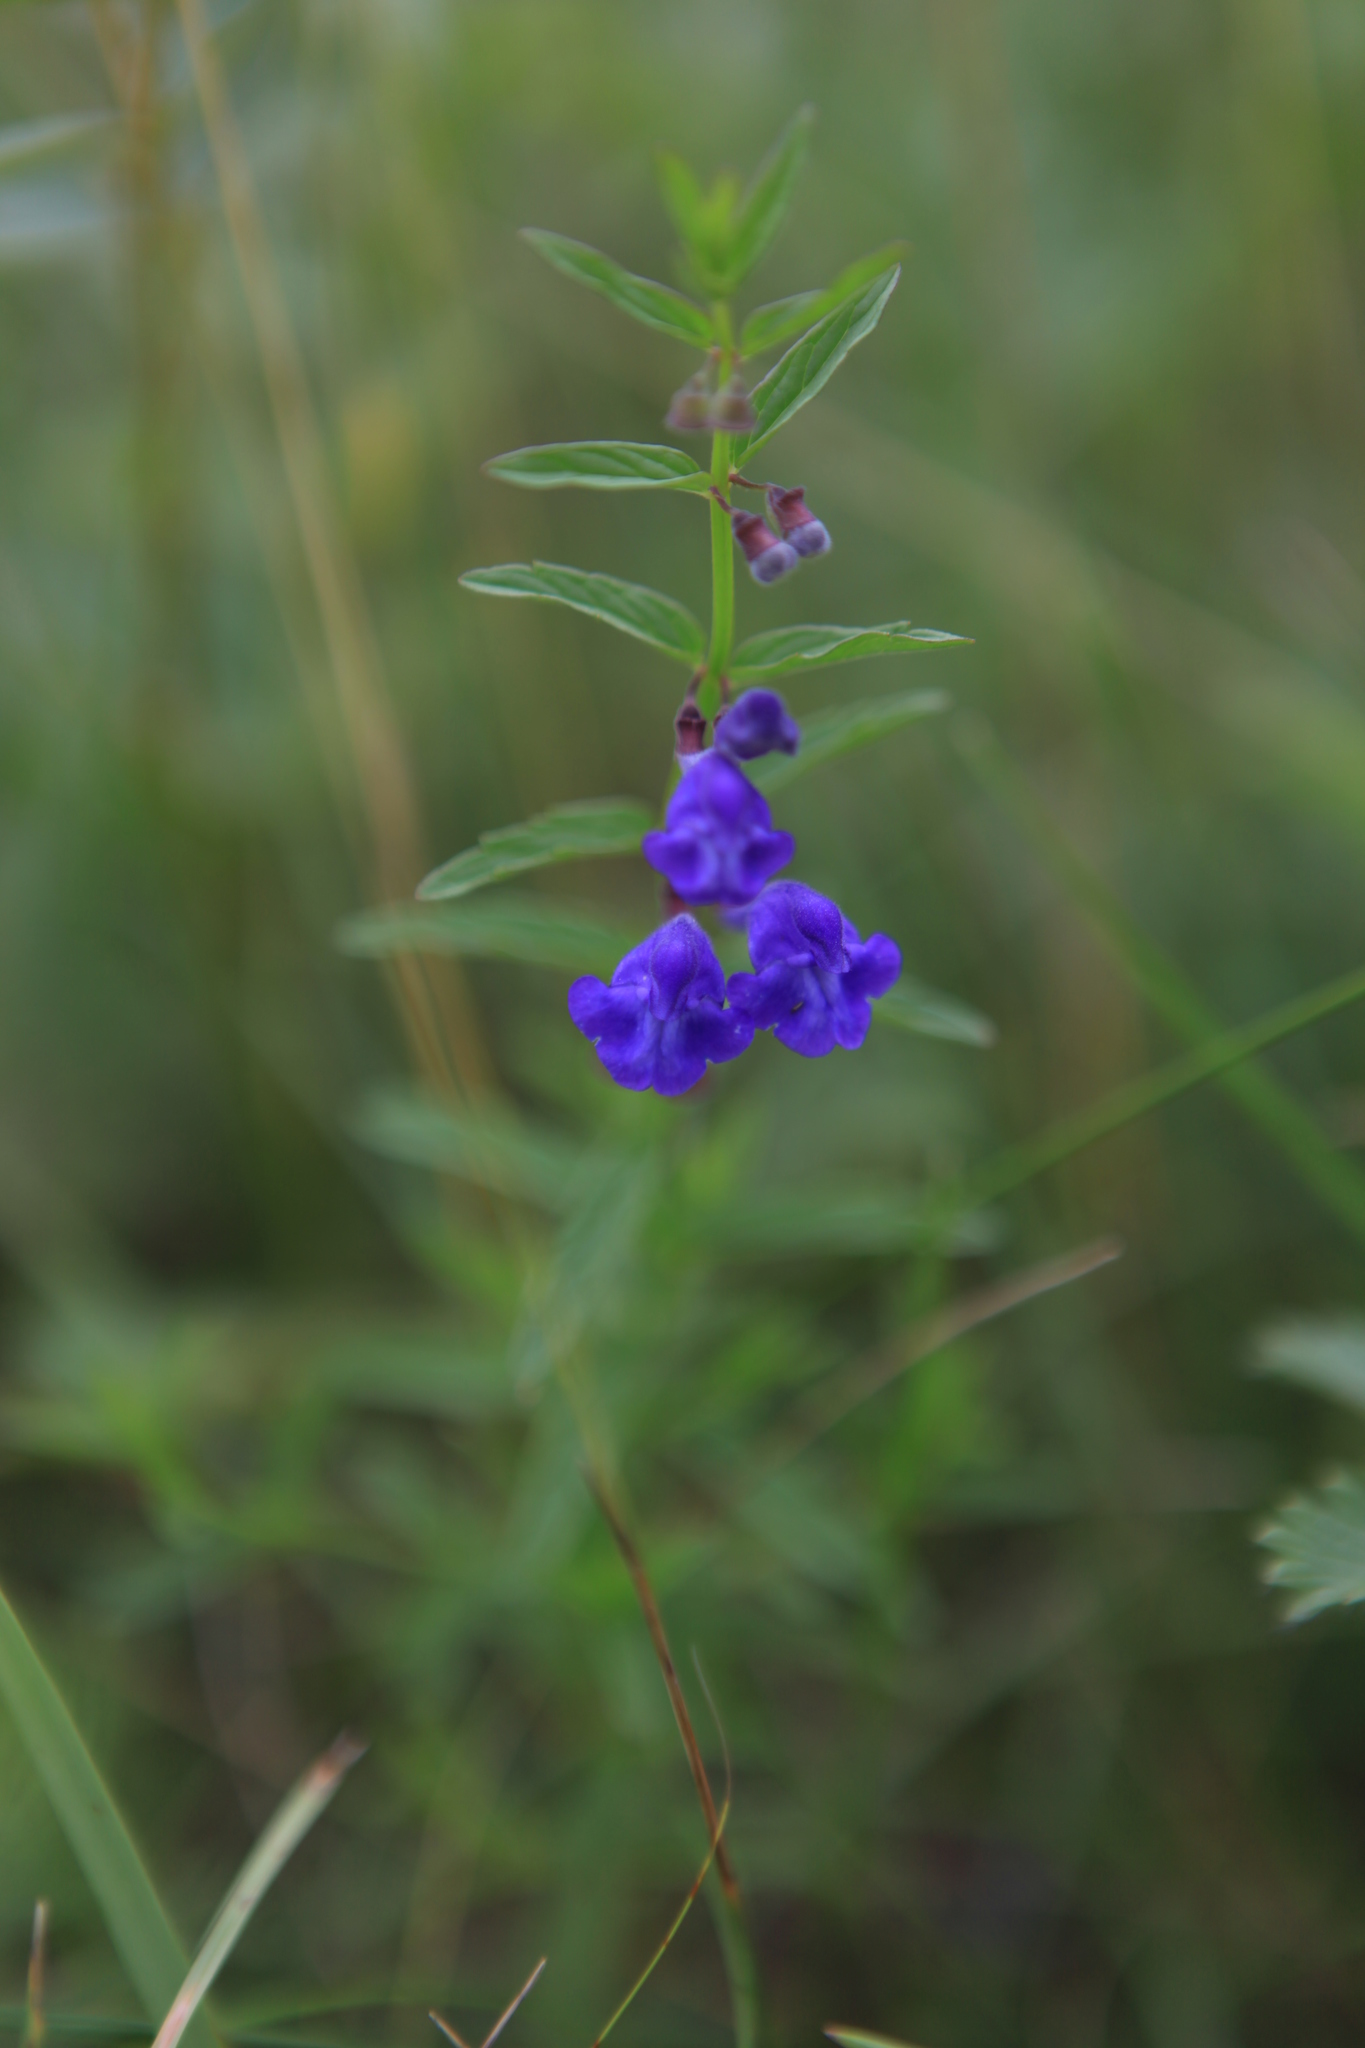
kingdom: Plantae
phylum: Tracheophyta
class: Magnoliopsida
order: Lamiales
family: Lamiaceae
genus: Scutellaria
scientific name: Scutellaria scordiifolia
